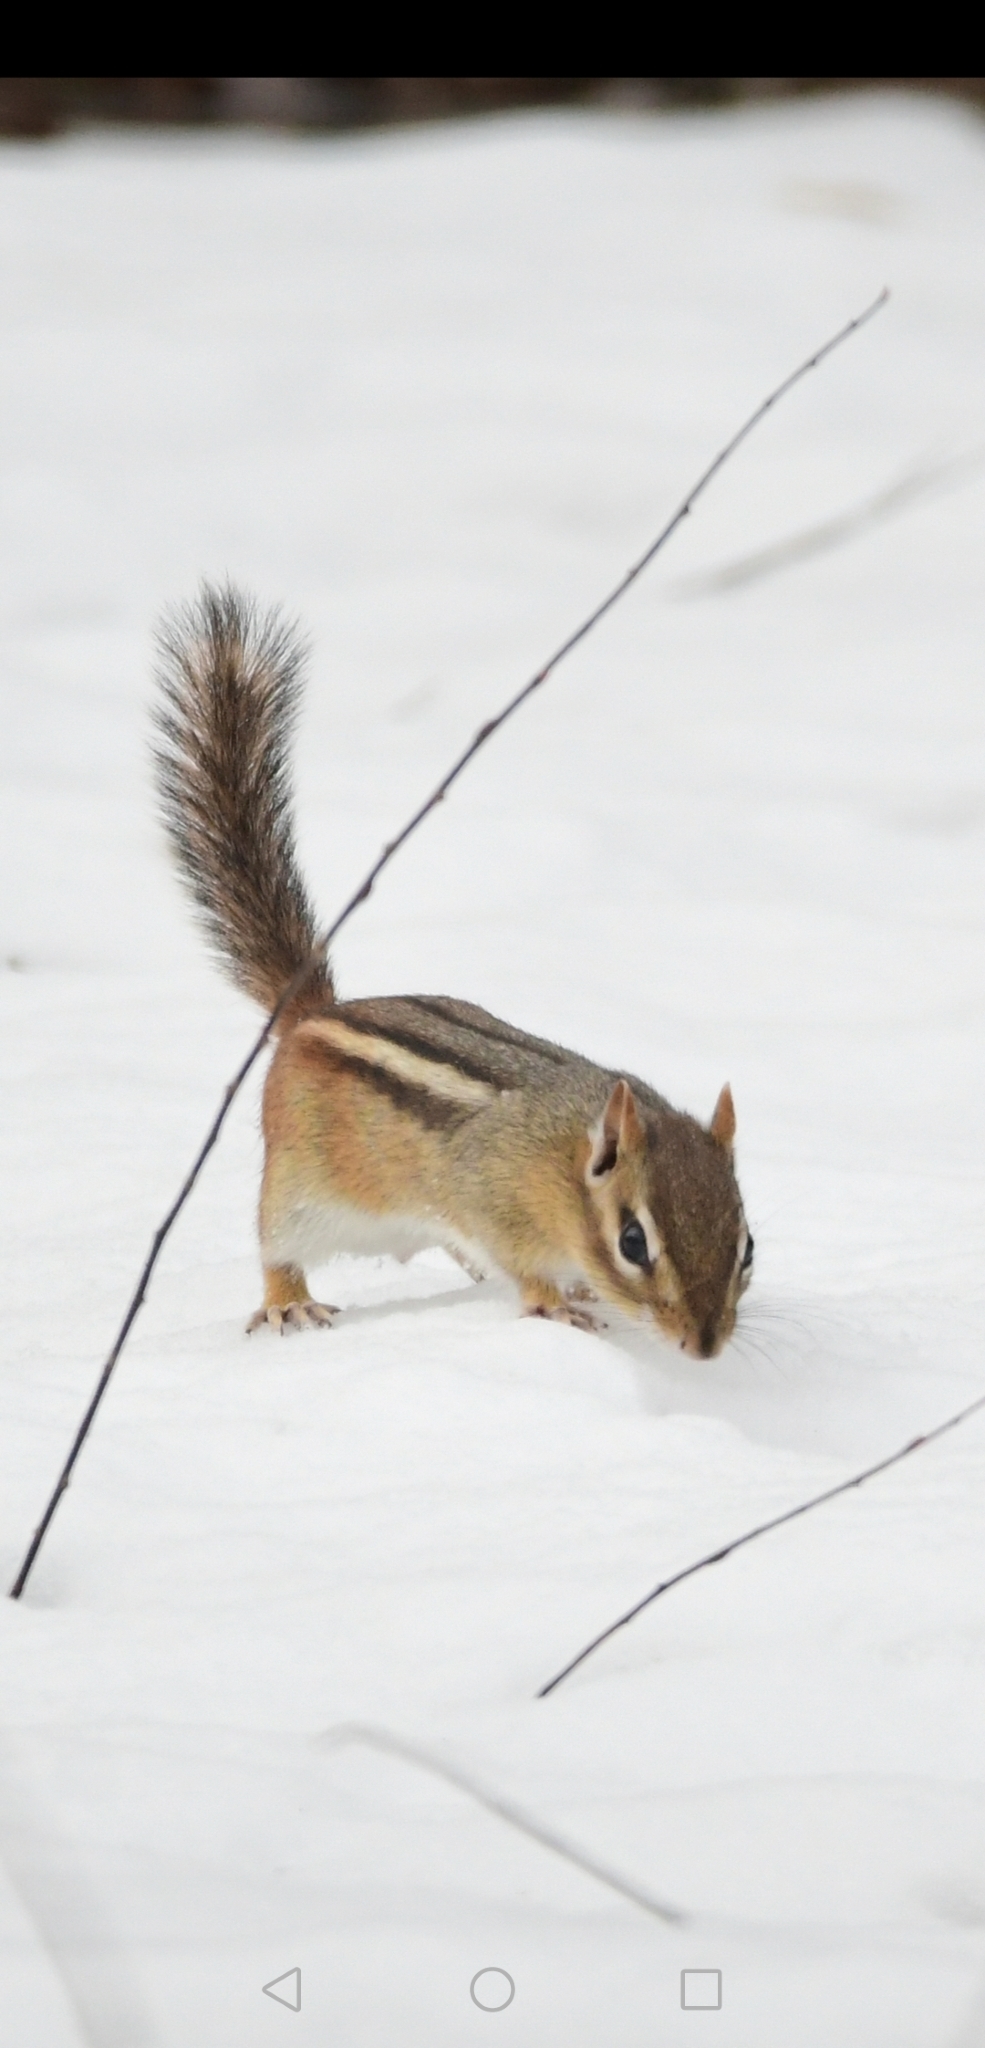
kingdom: Animalia
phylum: Chordata
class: Mammalia
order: Rodentia
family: Sciuridae
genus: Tamias
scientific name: Tamias striatus
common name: Eastern chipmunk
